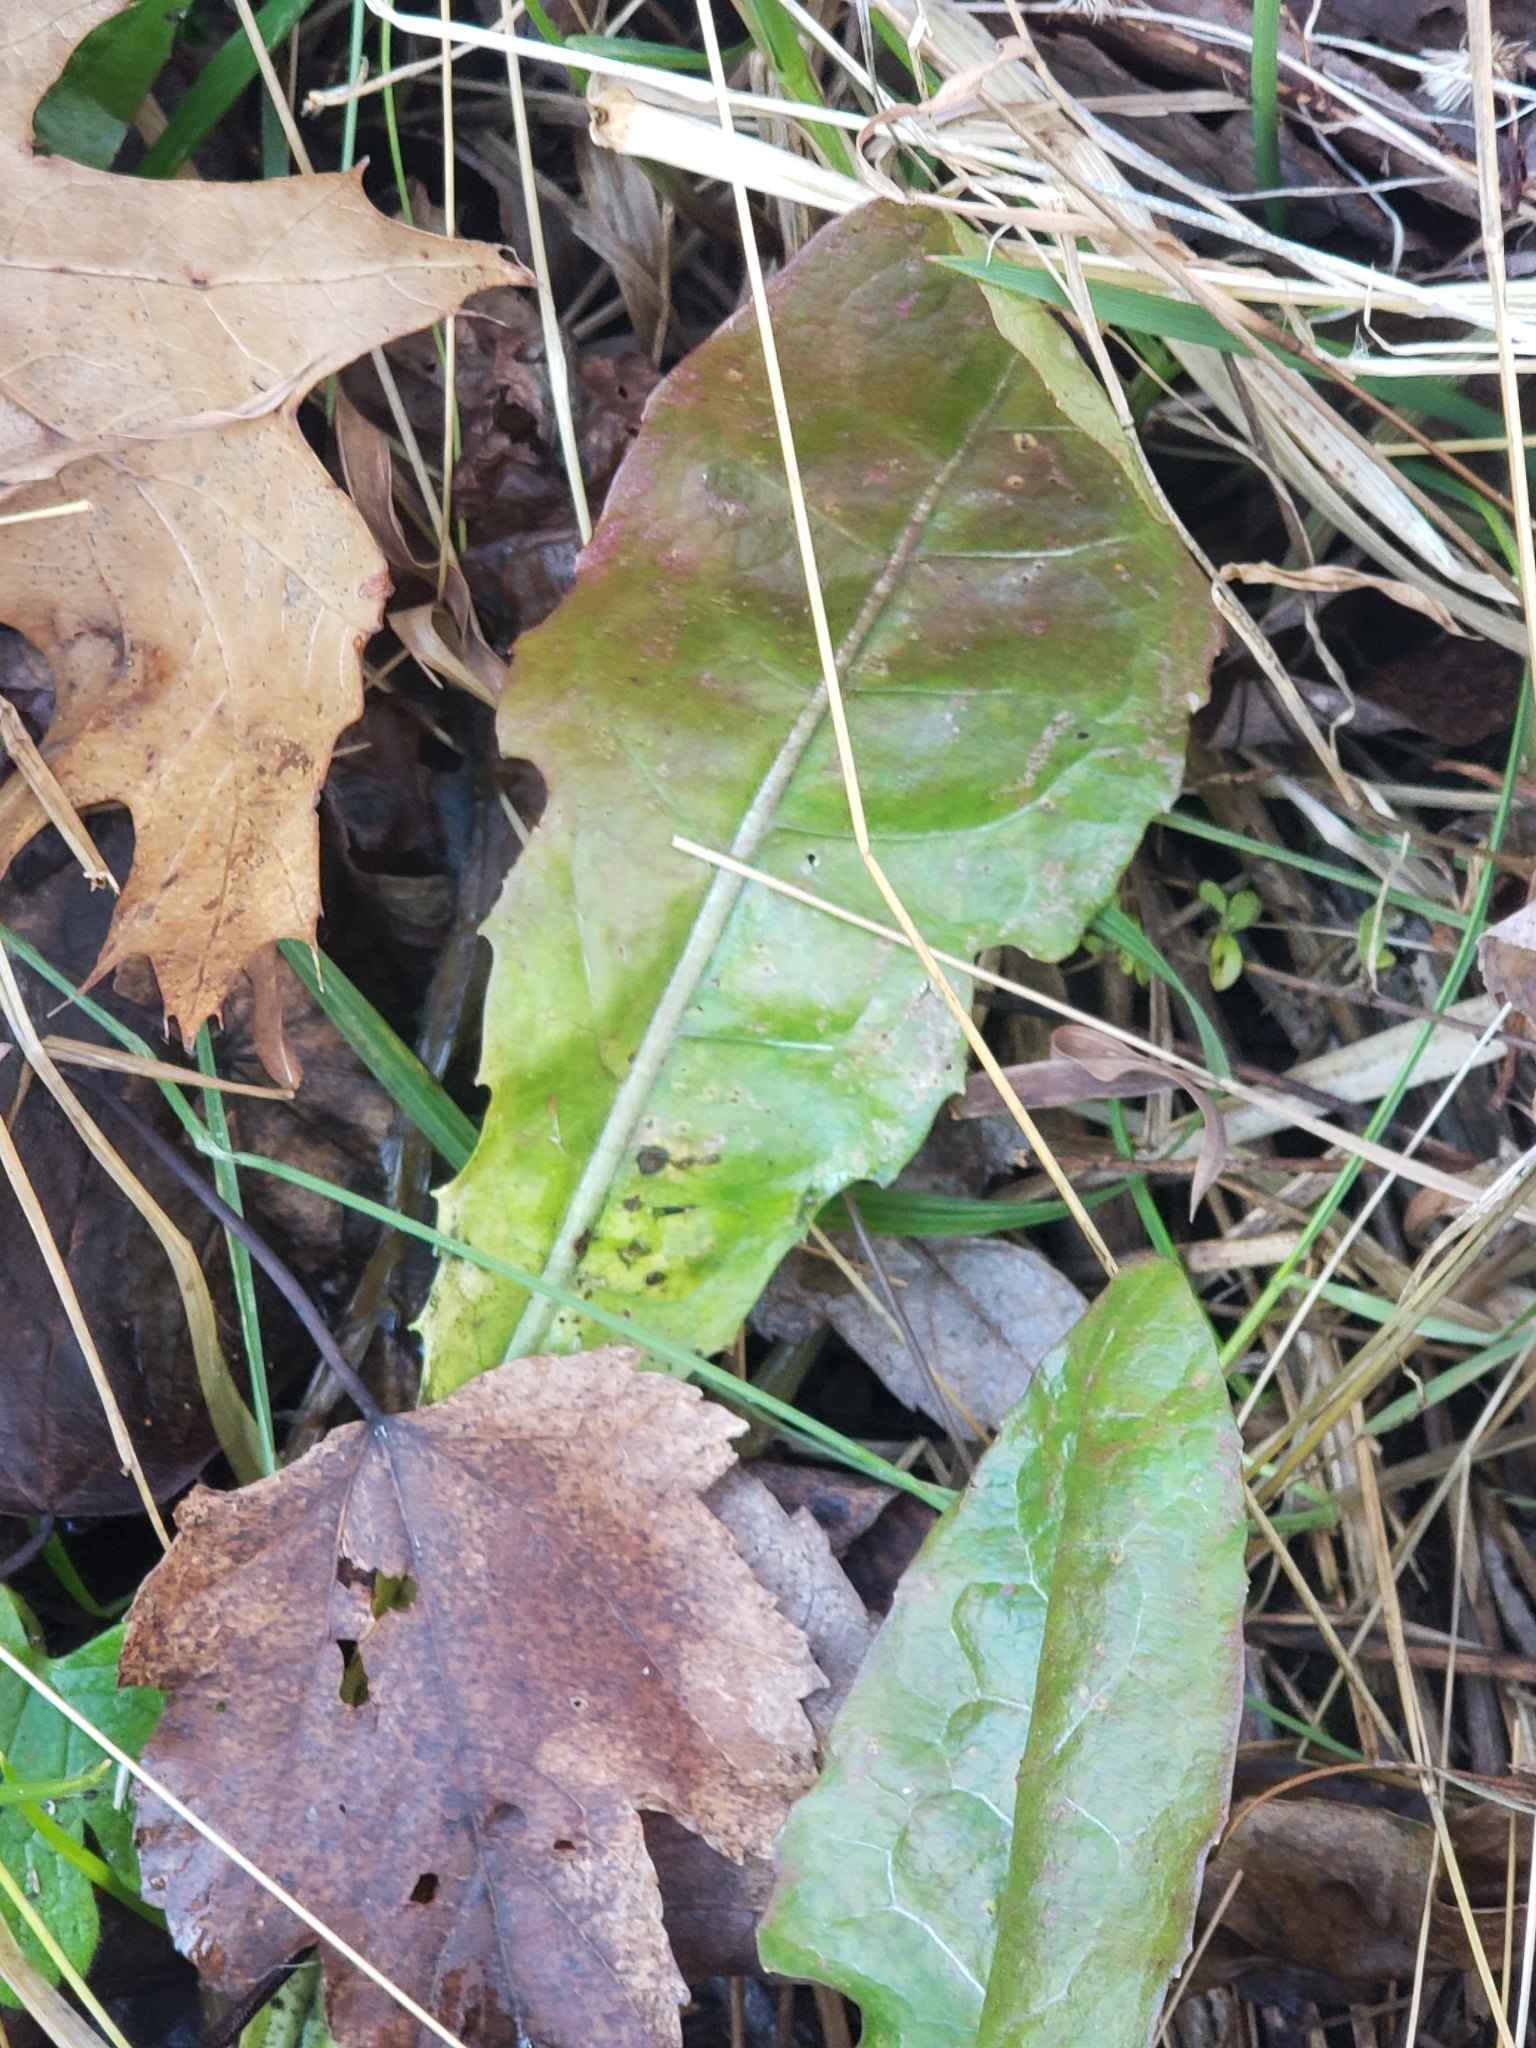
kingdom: Plantae
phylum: Tracheophyta
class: Magnoliopsida
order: Asterales
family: Asteraceae
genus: Taraxacum
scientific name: Taraxacum officinale
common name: Common dandelion
